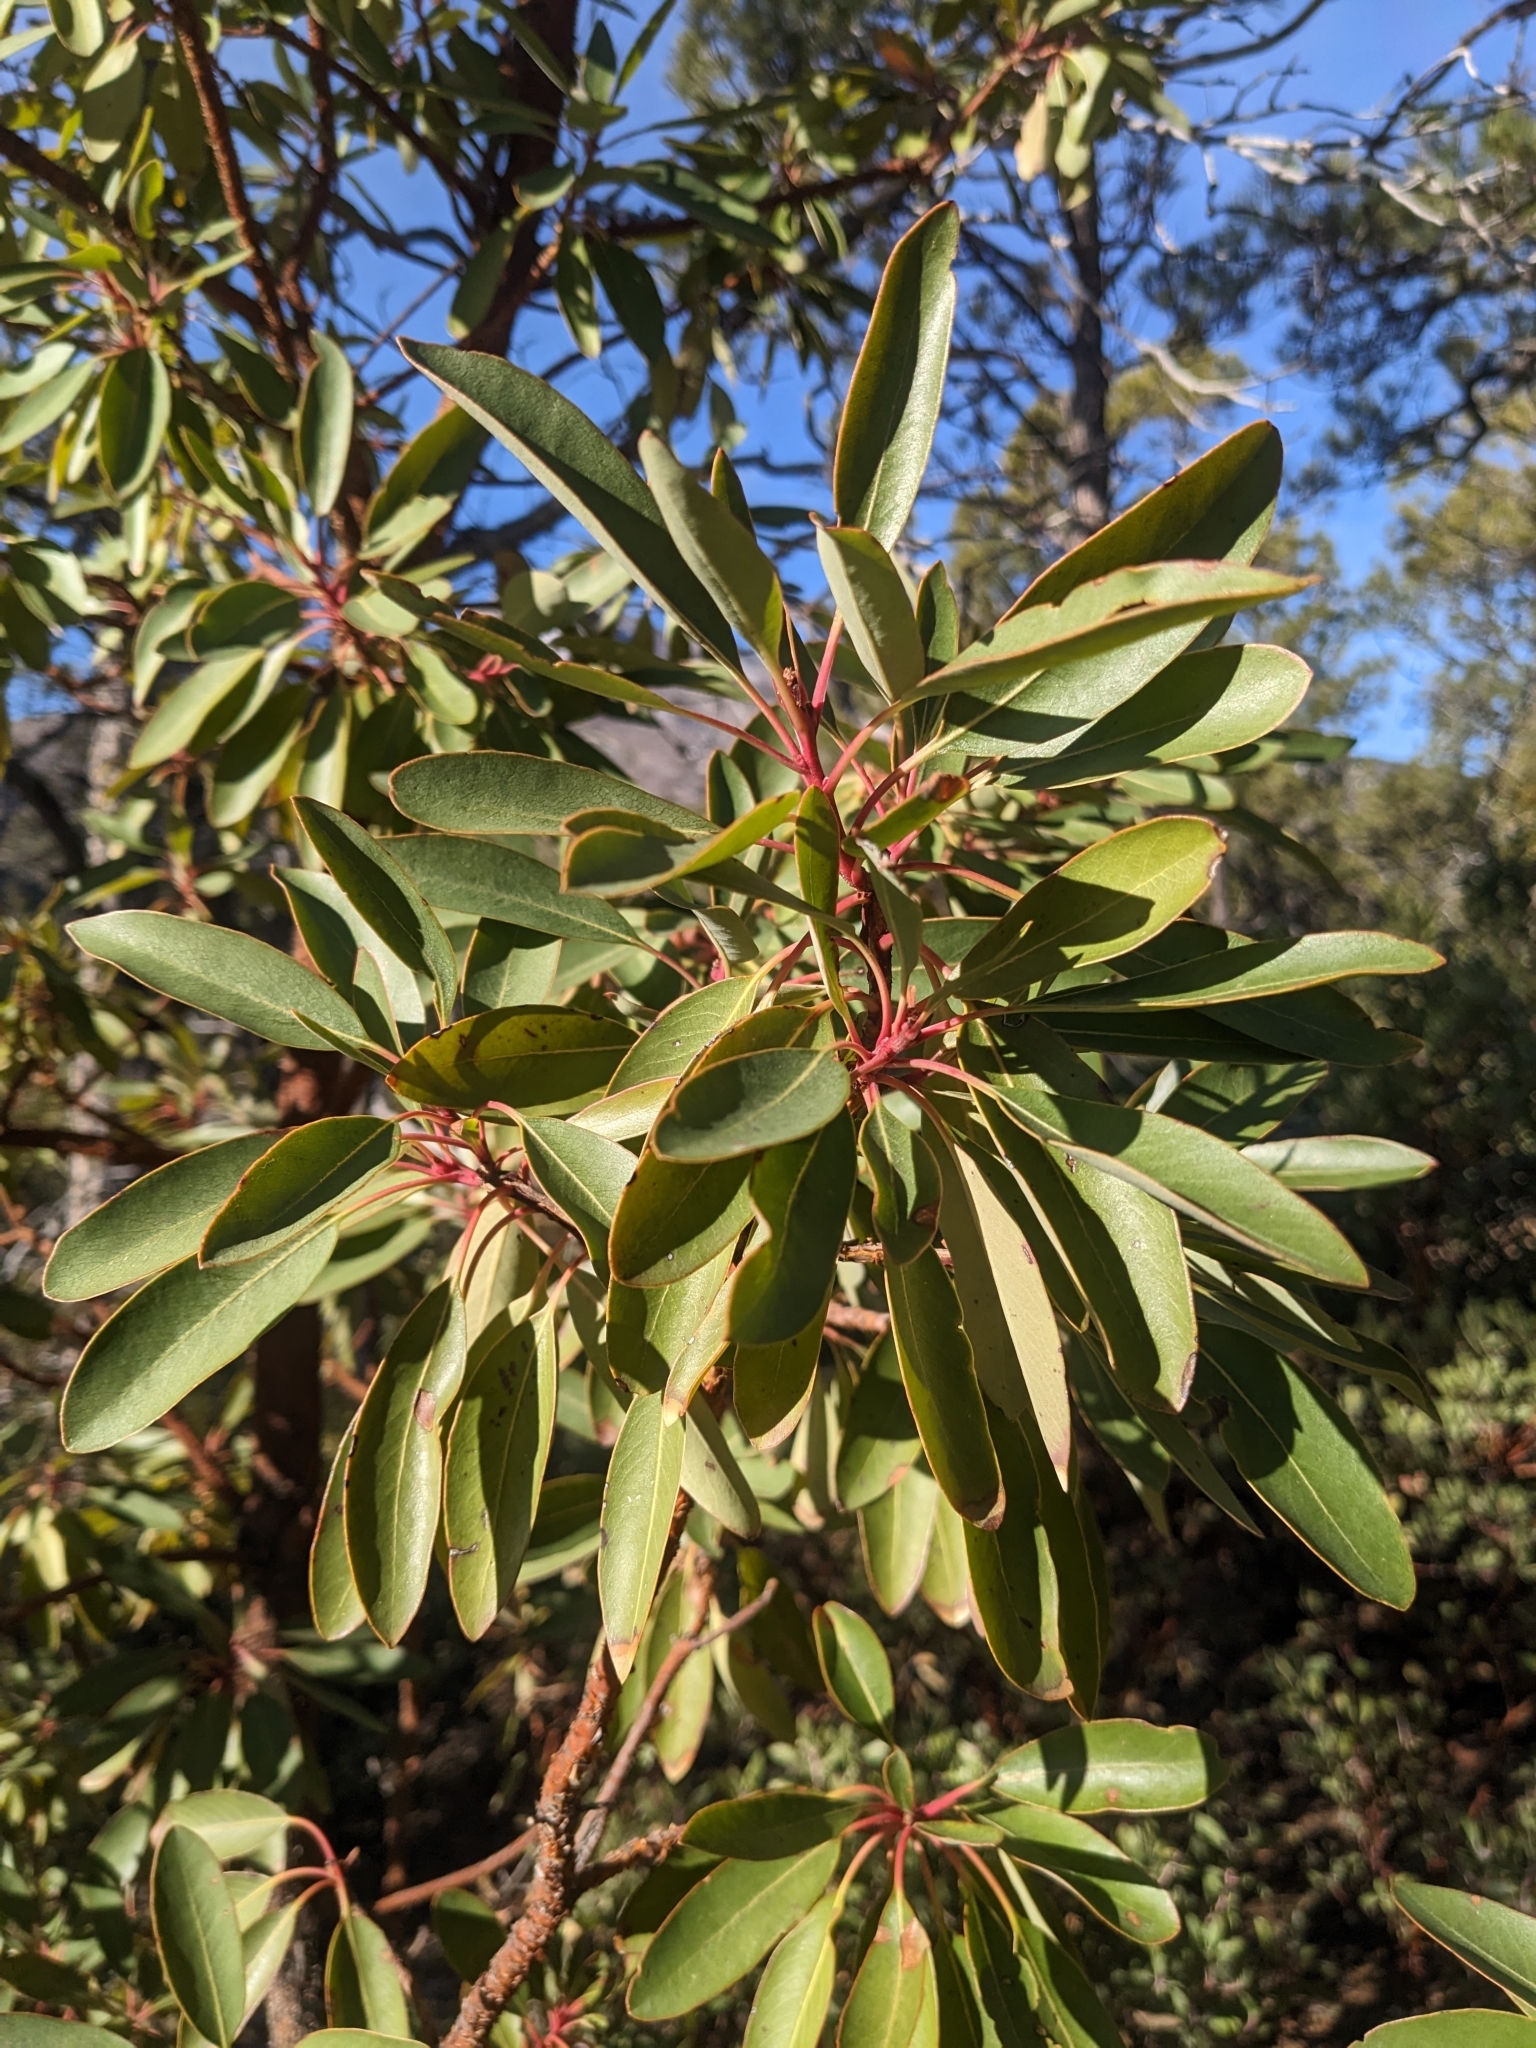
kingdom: Plantae
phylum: Tracheophyta
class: Magnoliopsida
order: Ericales
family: Ericaceae
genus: Arbutus
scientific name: Arbutus arizonica
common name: Arizona madrone
